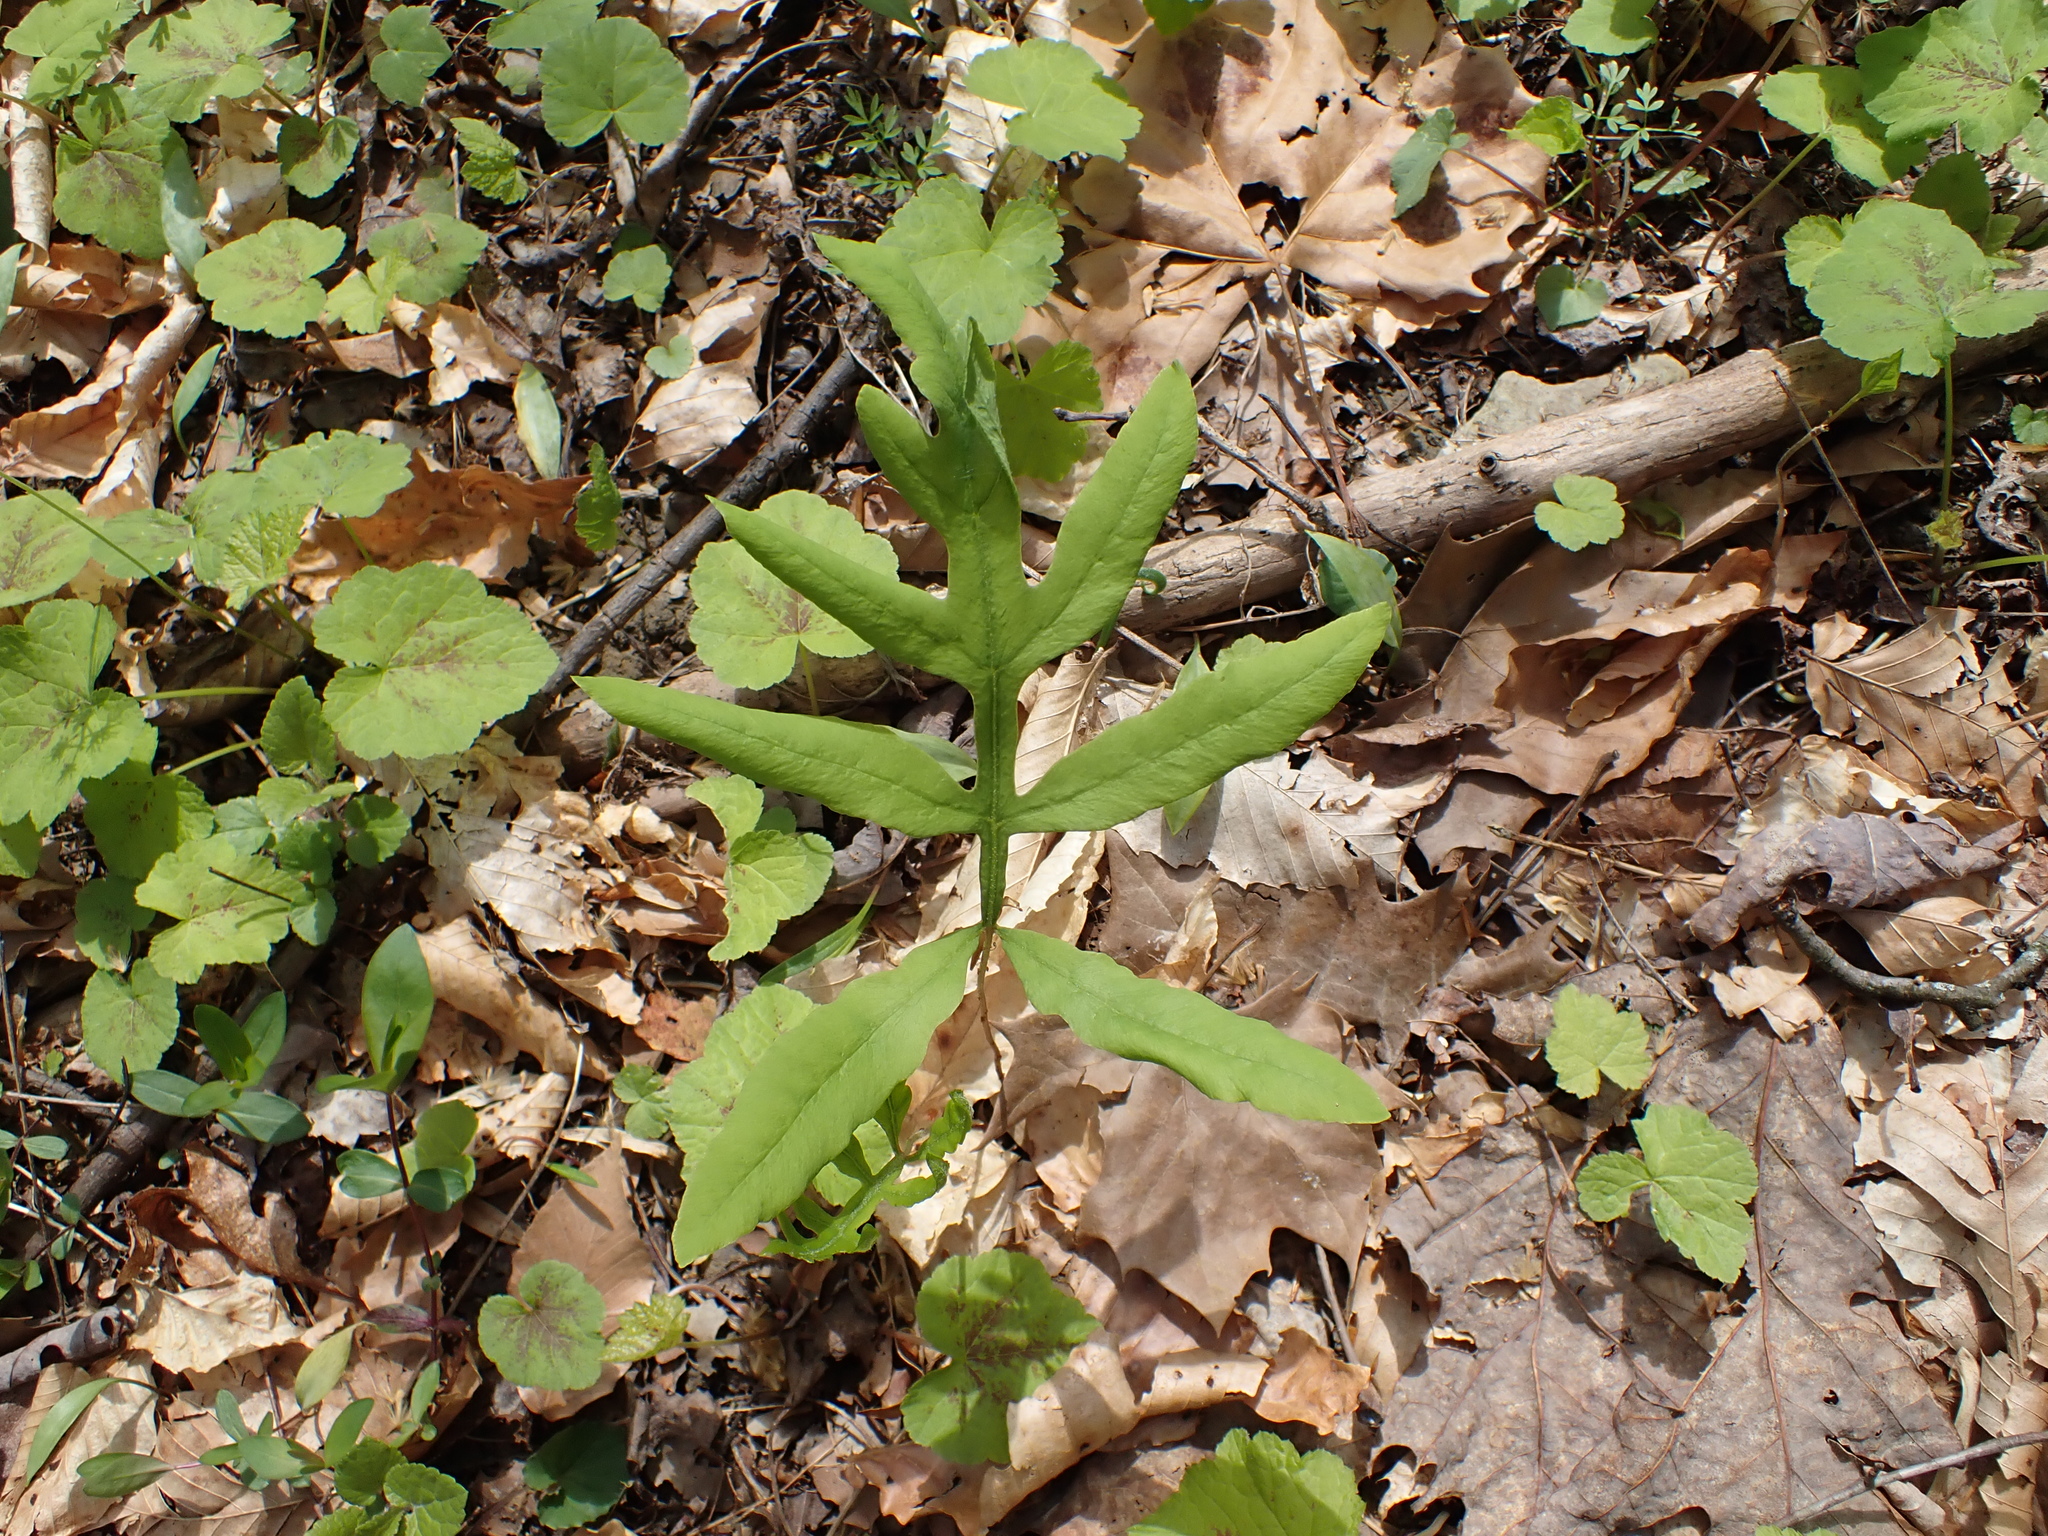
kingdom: Plantae
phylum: Tracheophyta
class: Polypodiopsida
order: Polypodiales
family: Onocleaceae
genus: Onoclea
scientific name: Onoclea sensibilis
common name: Sensitive fern
